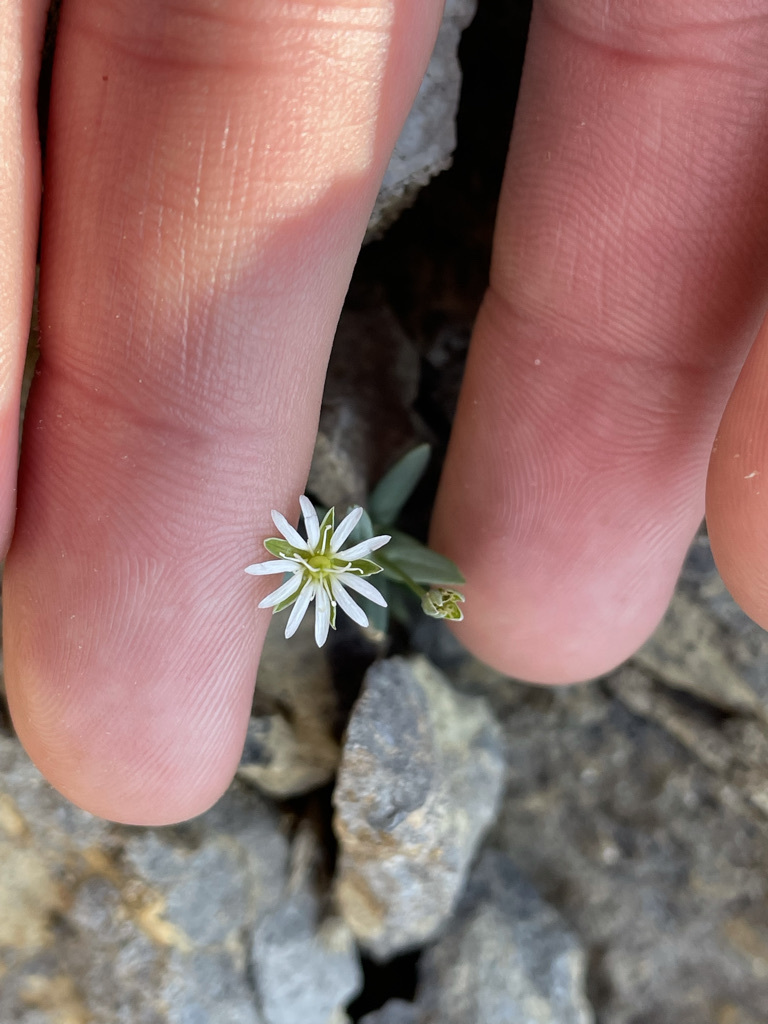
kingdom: Plantae
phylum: Tracheophyta
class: Magnoliopsida
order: Caryophyllales
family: Caryophyllaceae
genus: Stellaria
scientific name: Stellaria longipes
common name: Goldie's starwort
